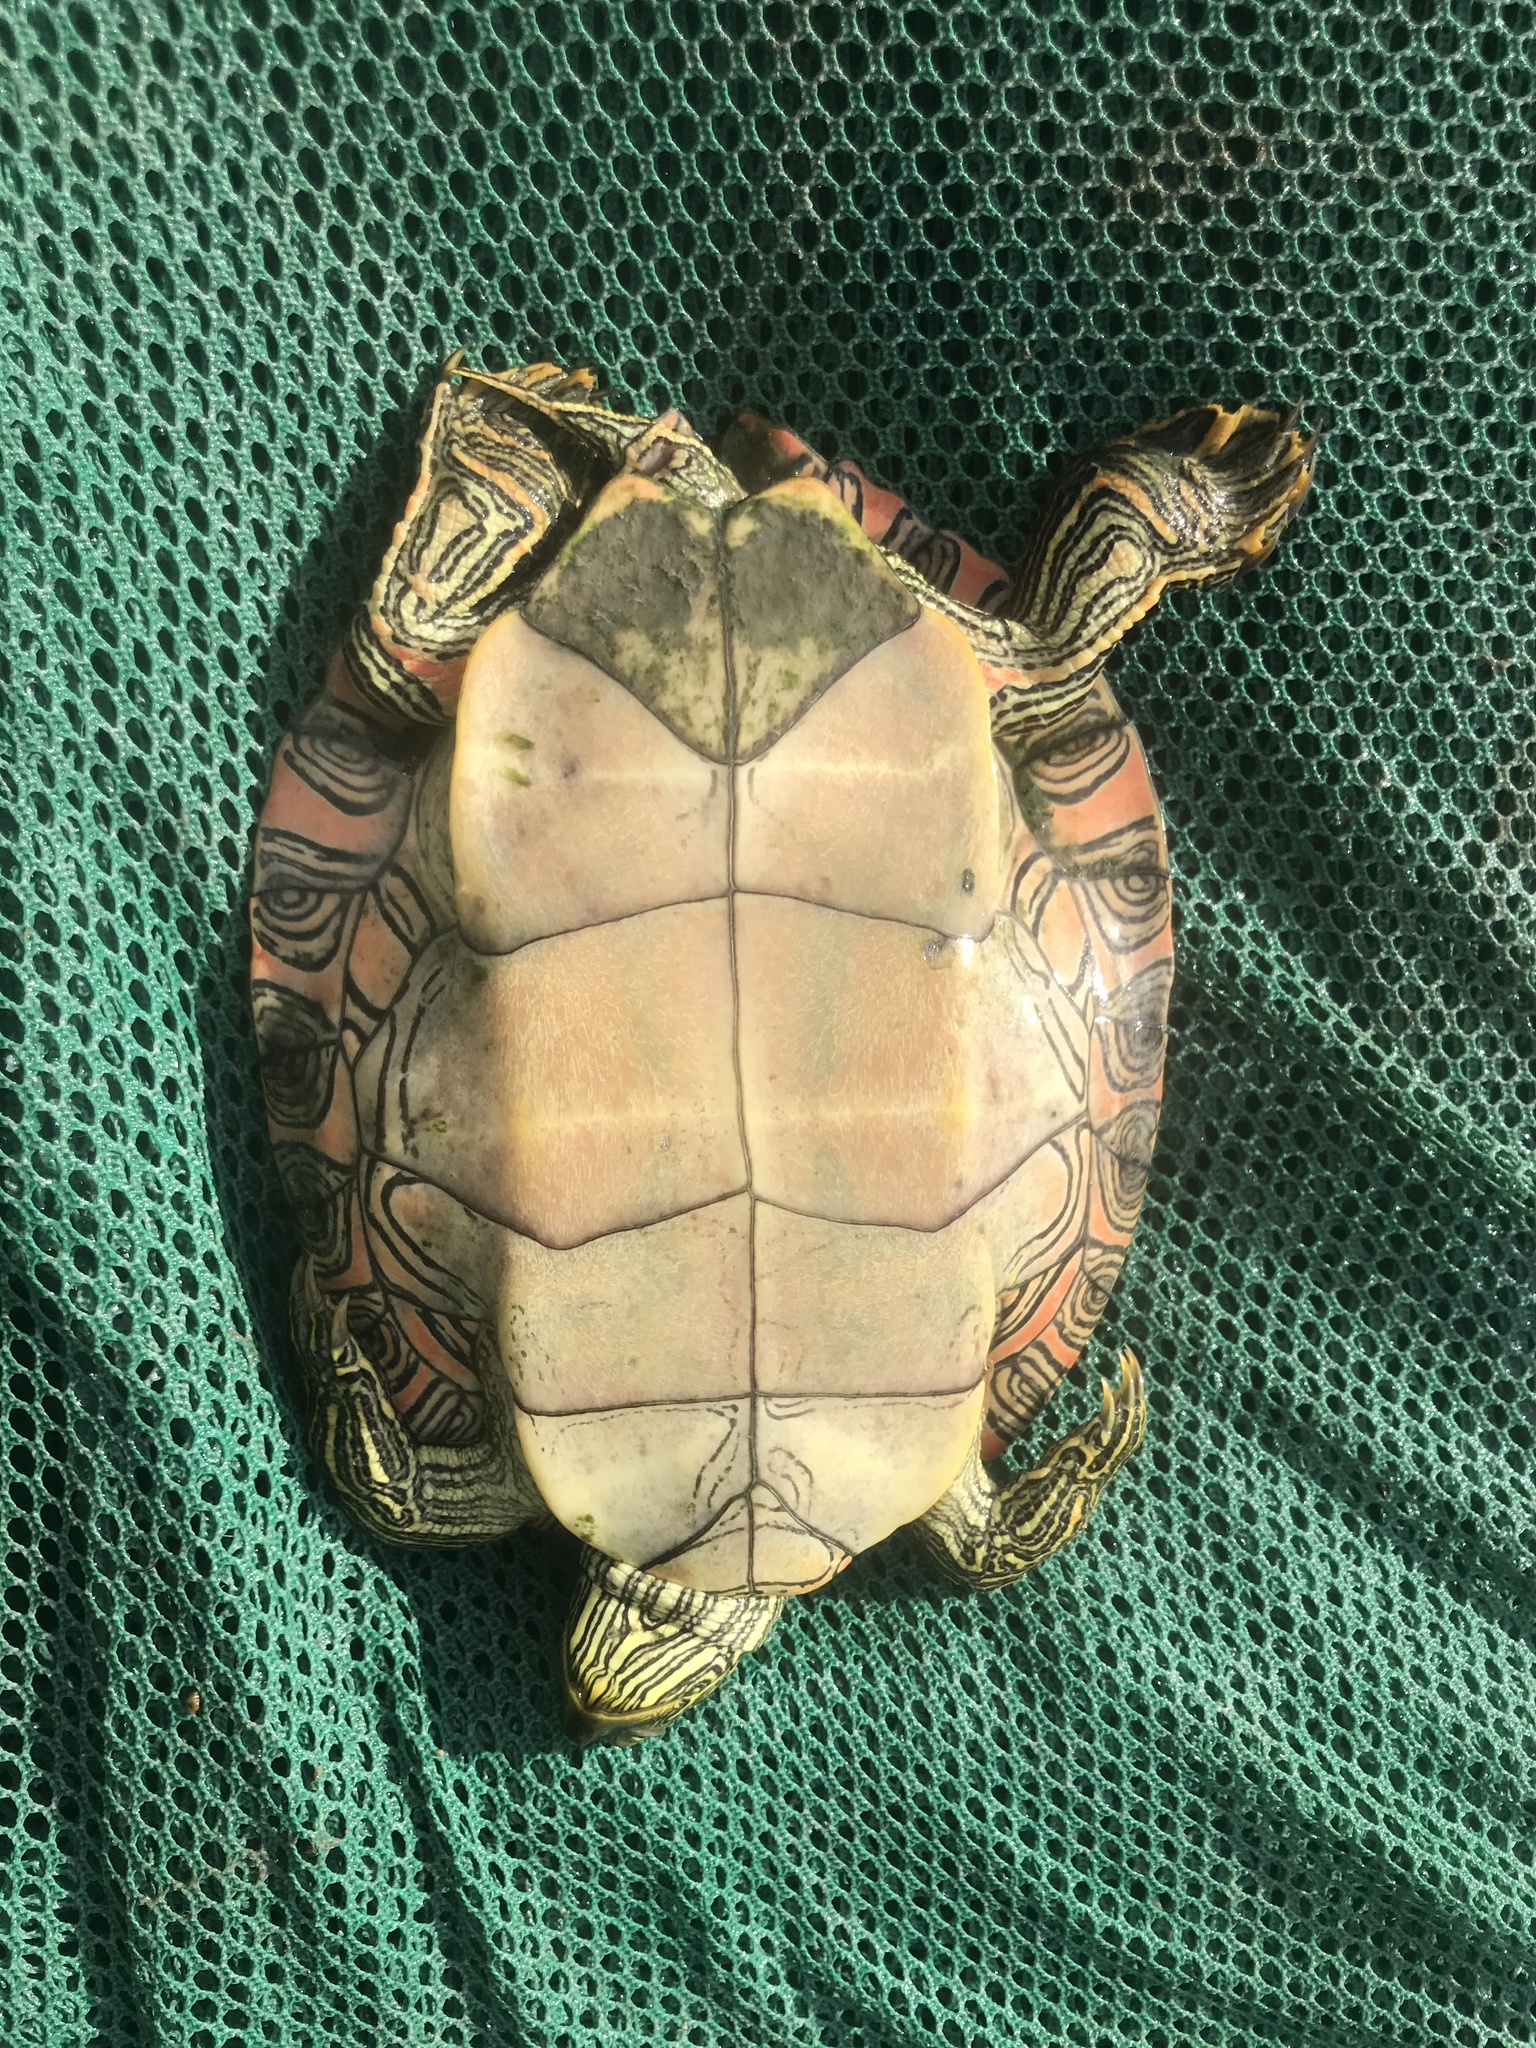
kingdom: Animalia
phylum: Chordata
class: Testudines
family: Emydidae
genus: Pseudemys
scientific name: Pseudemys texana
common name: Texas river cooter
